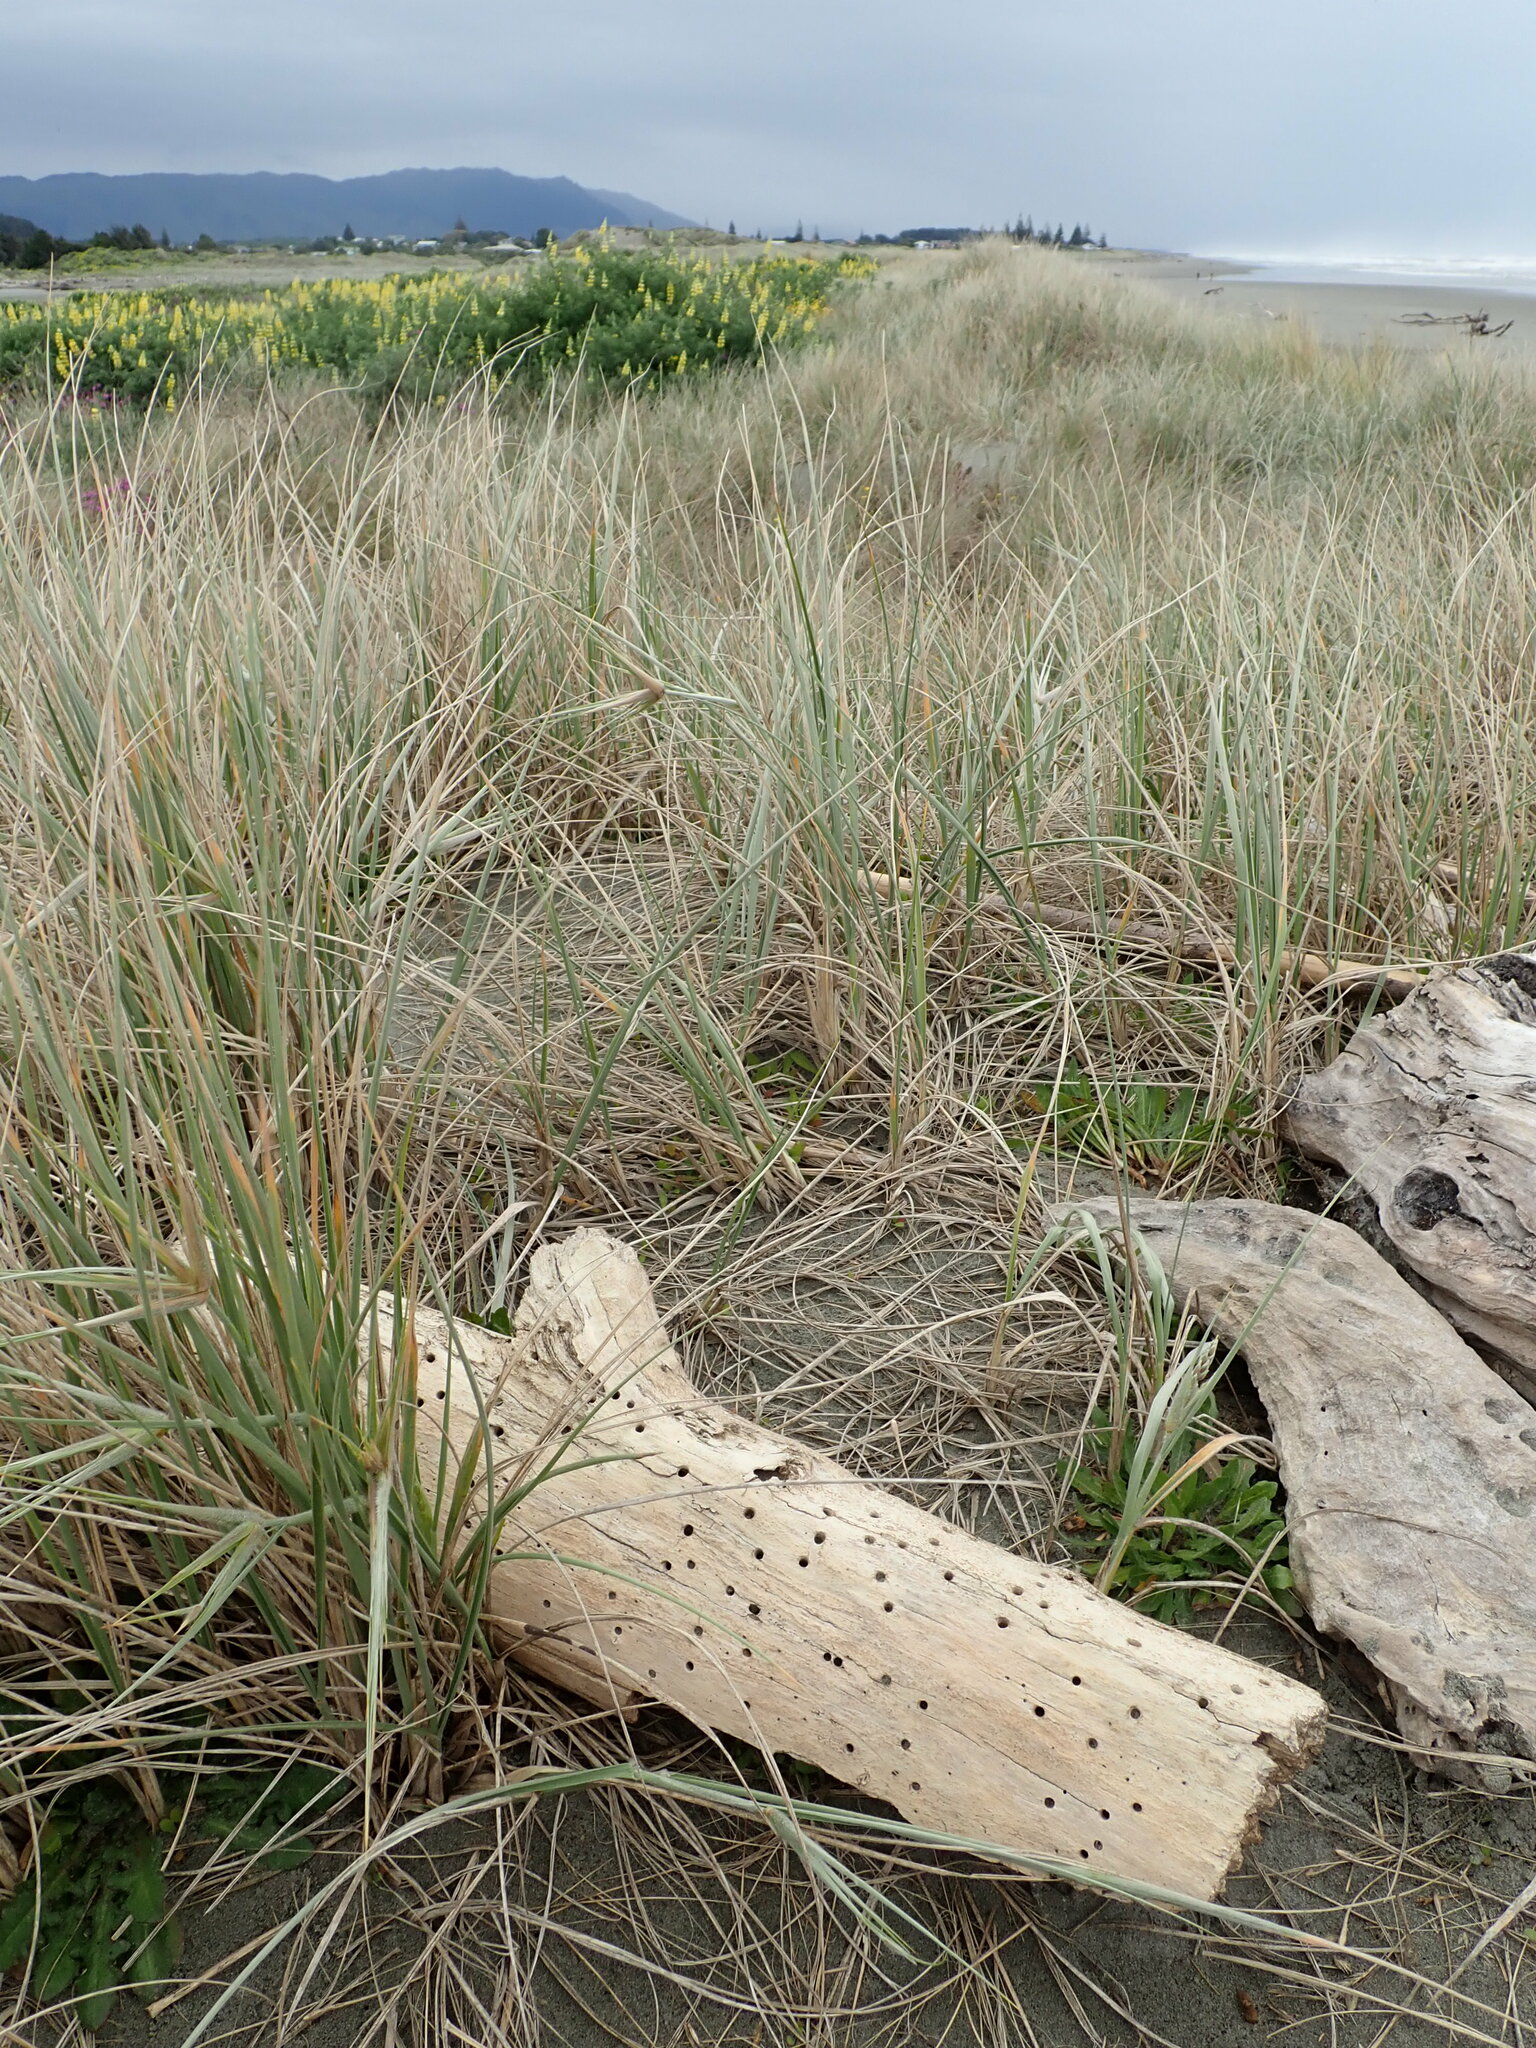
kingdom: Animalia
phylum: Arthropoda
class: Arachnida
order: Araneae
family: Porrhothelidae
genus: Porrhothele
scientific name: Porrhothele antipodiana
